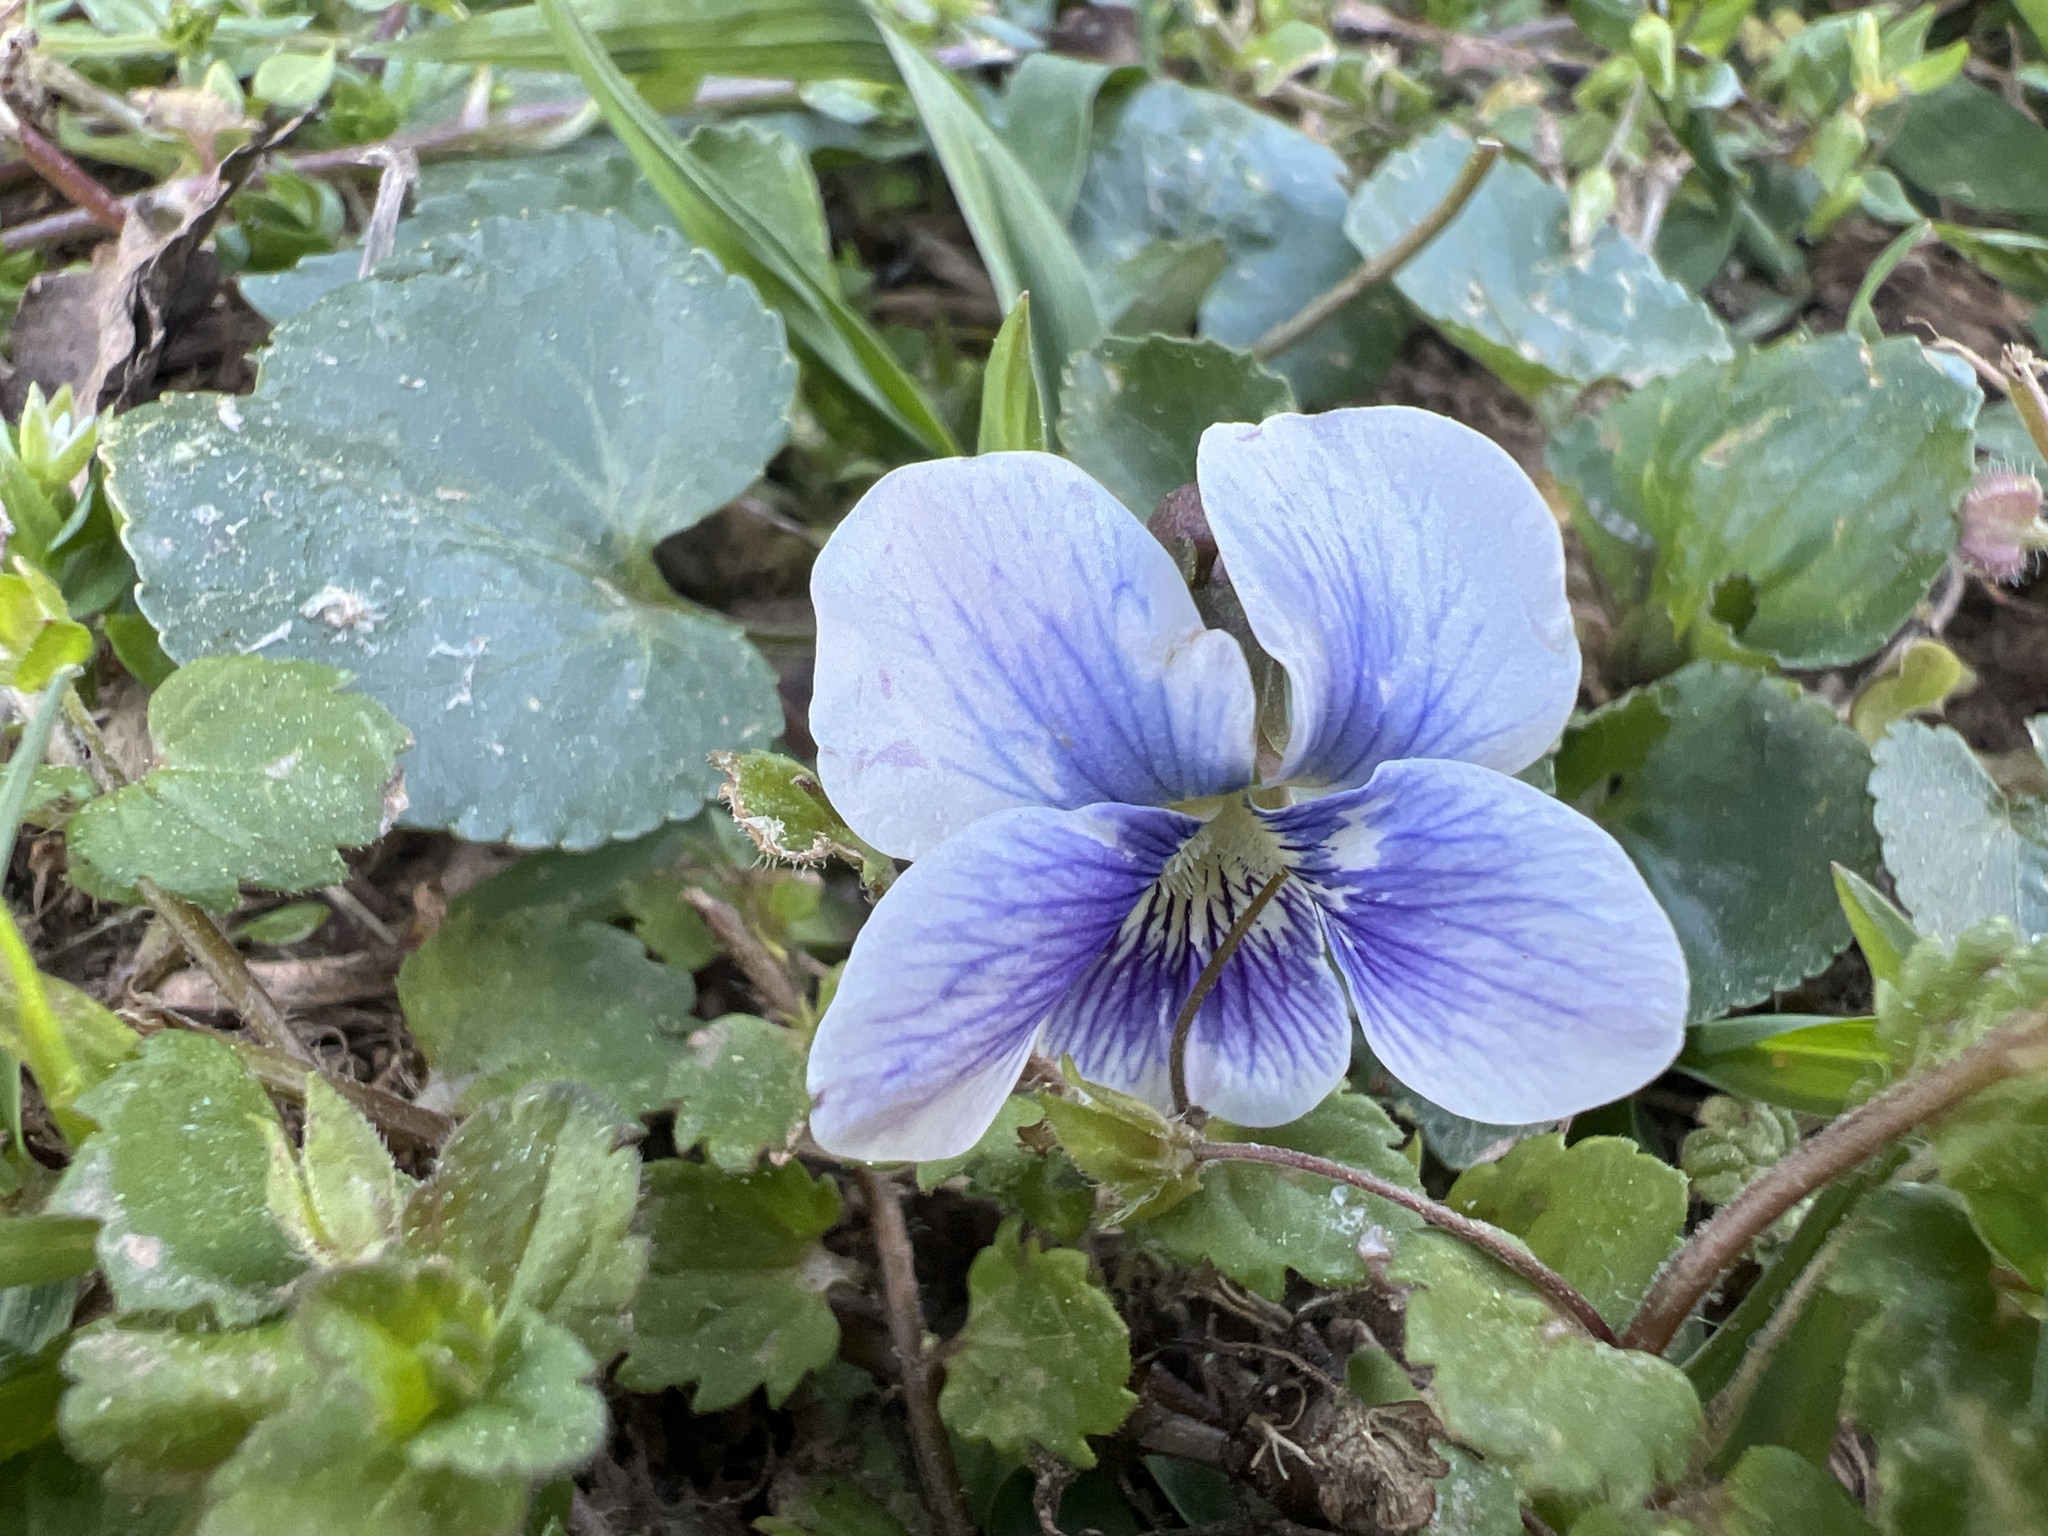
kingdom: Plantae
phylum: Tracheophyta
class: Magnoliopsida
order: Malpighiales
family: Violaceae
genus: Viola
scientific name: Viola communis
